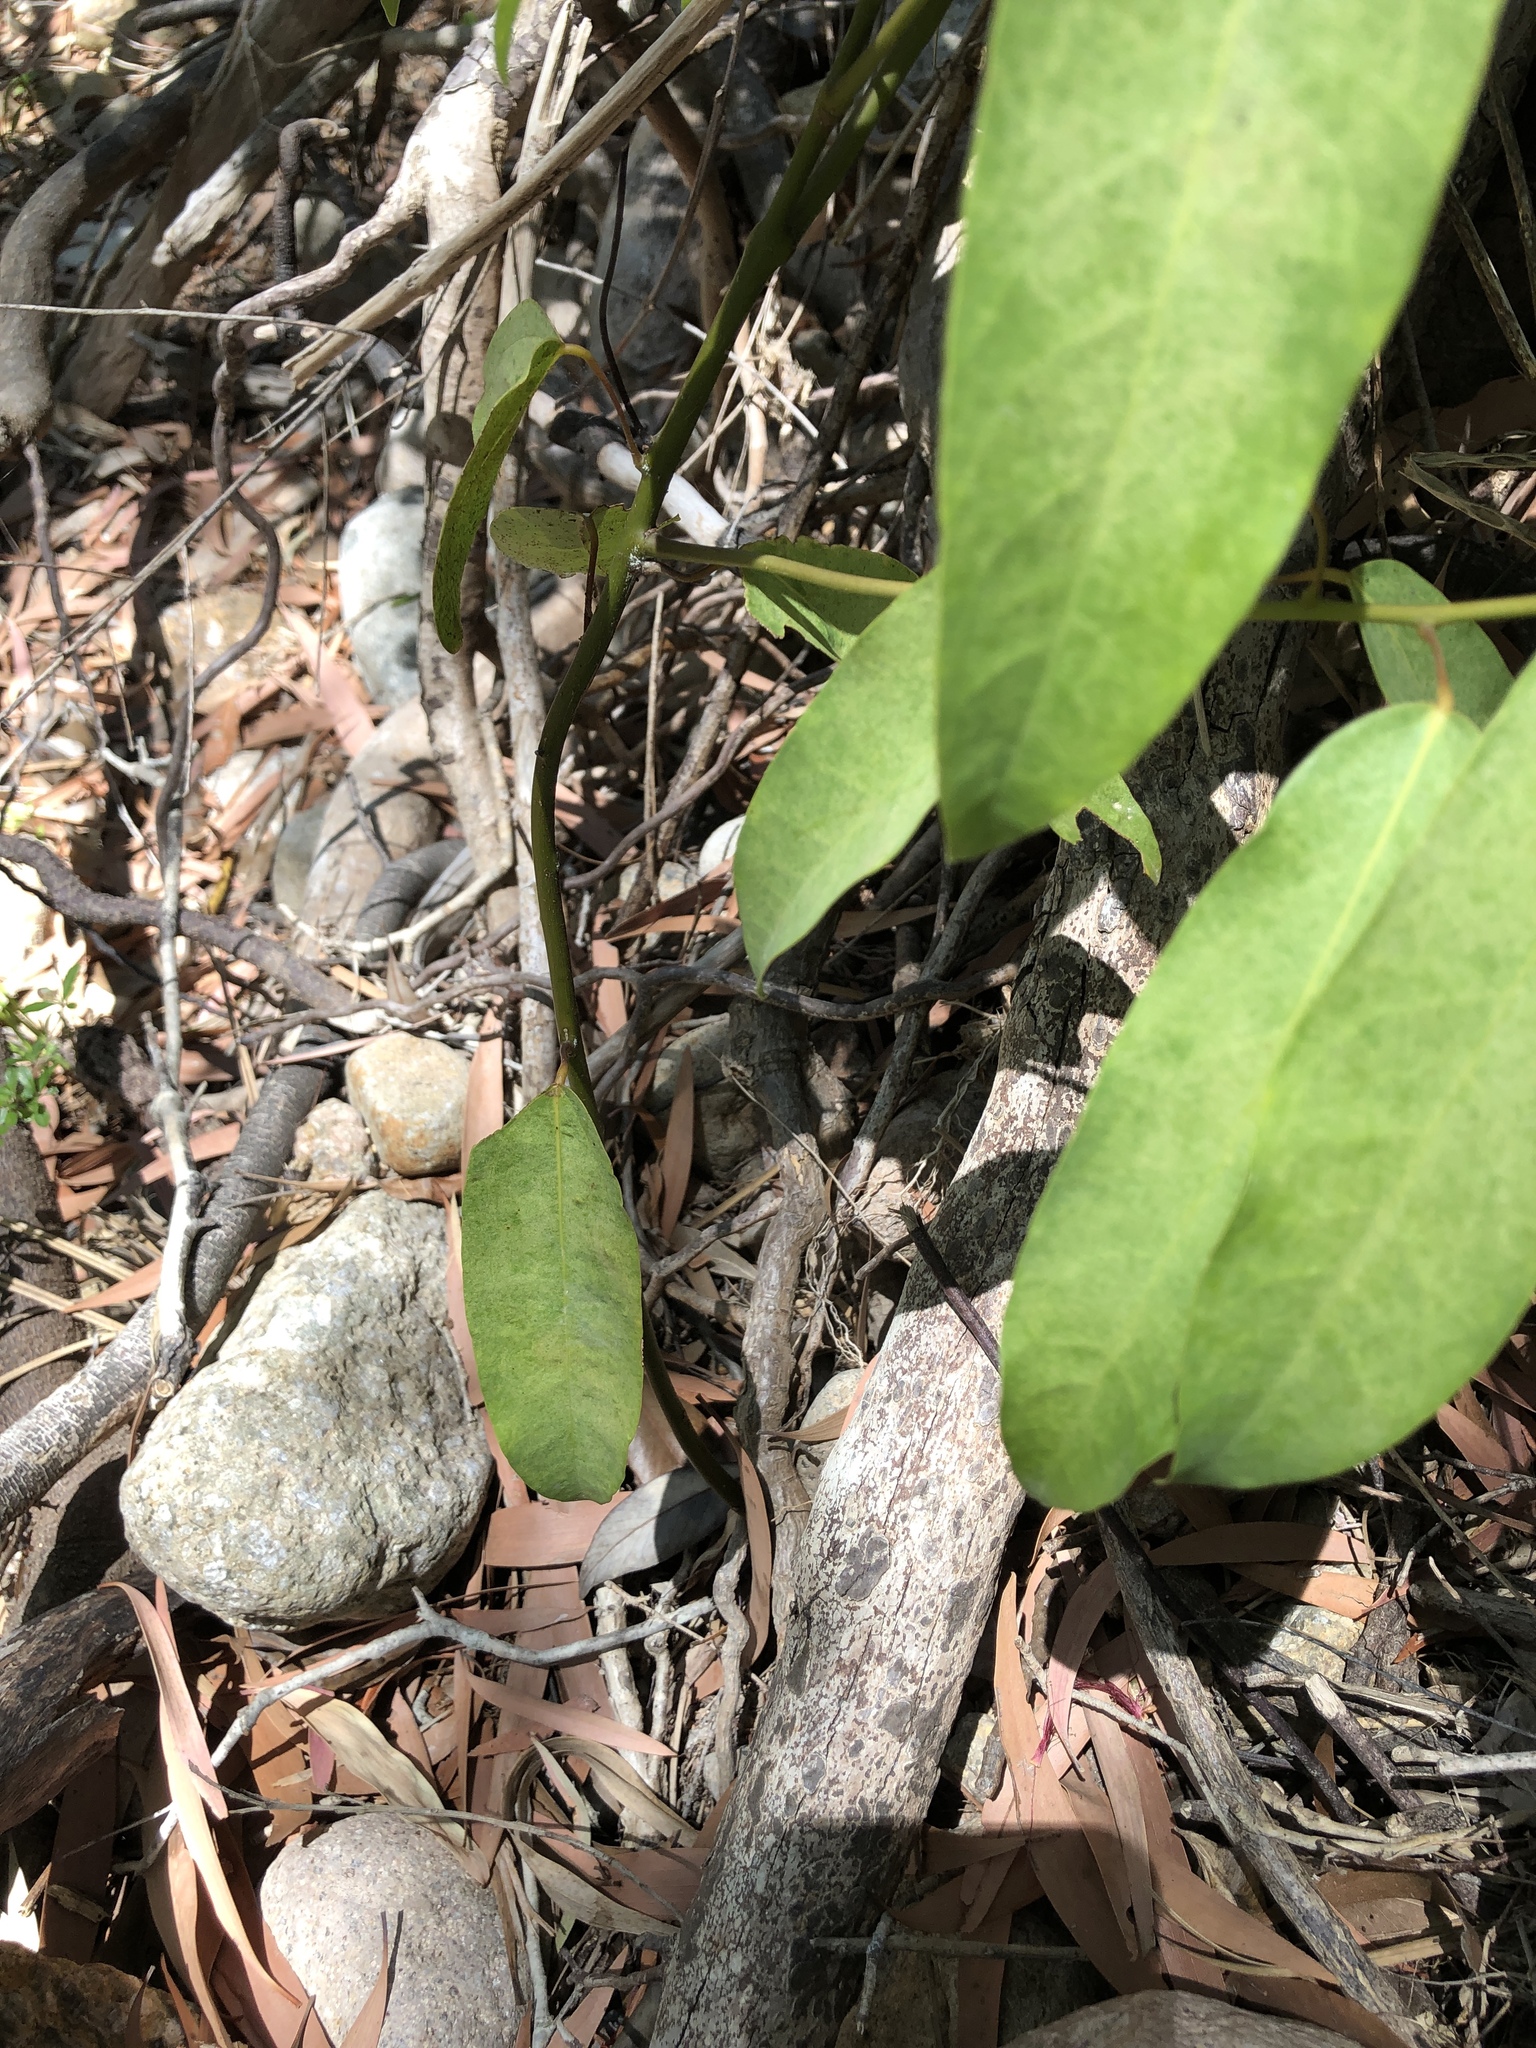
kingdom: Plantae
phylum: Tracheophyta
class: Magnoliopsida
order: Ranunculales
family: Menispermaceae
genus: Hypserpa
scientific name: Hypserpa laurina
